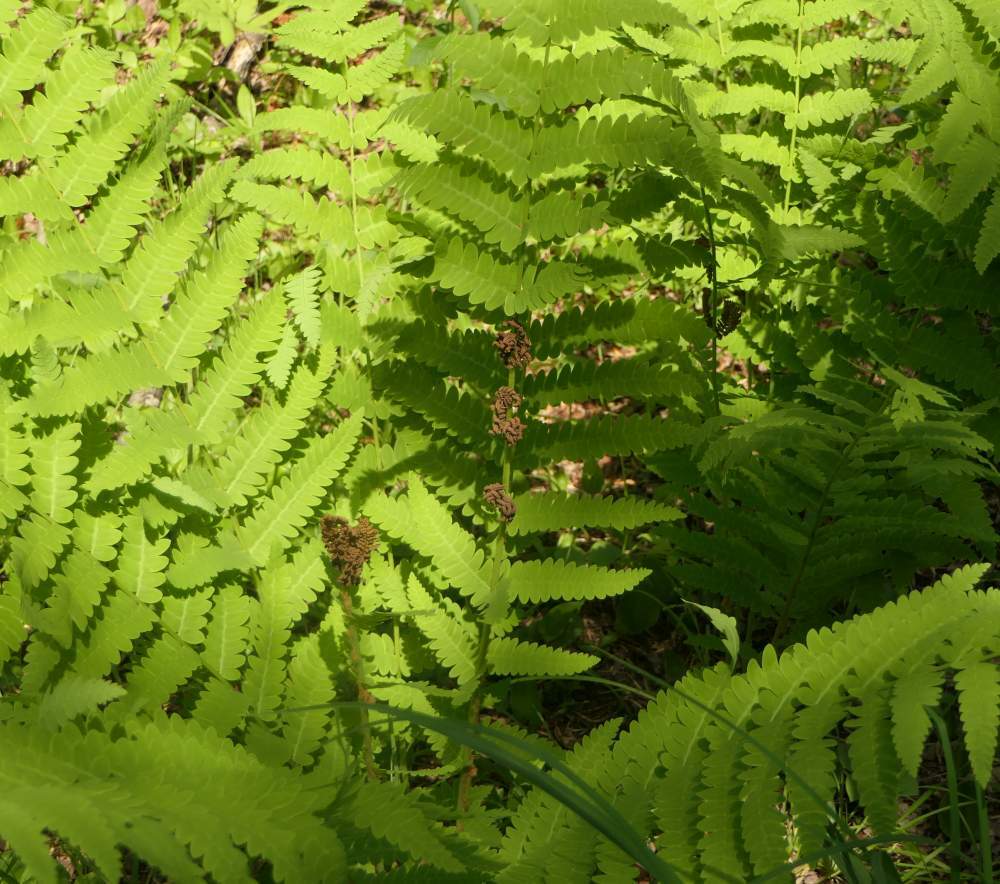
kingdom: Plantae
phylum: Tracheophyta
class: Polypodiopsida
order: Osmundales
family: Osmundaceae
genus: Claytosmunda
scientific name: Claytosmunda claytoniana
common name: Clayton's fern
